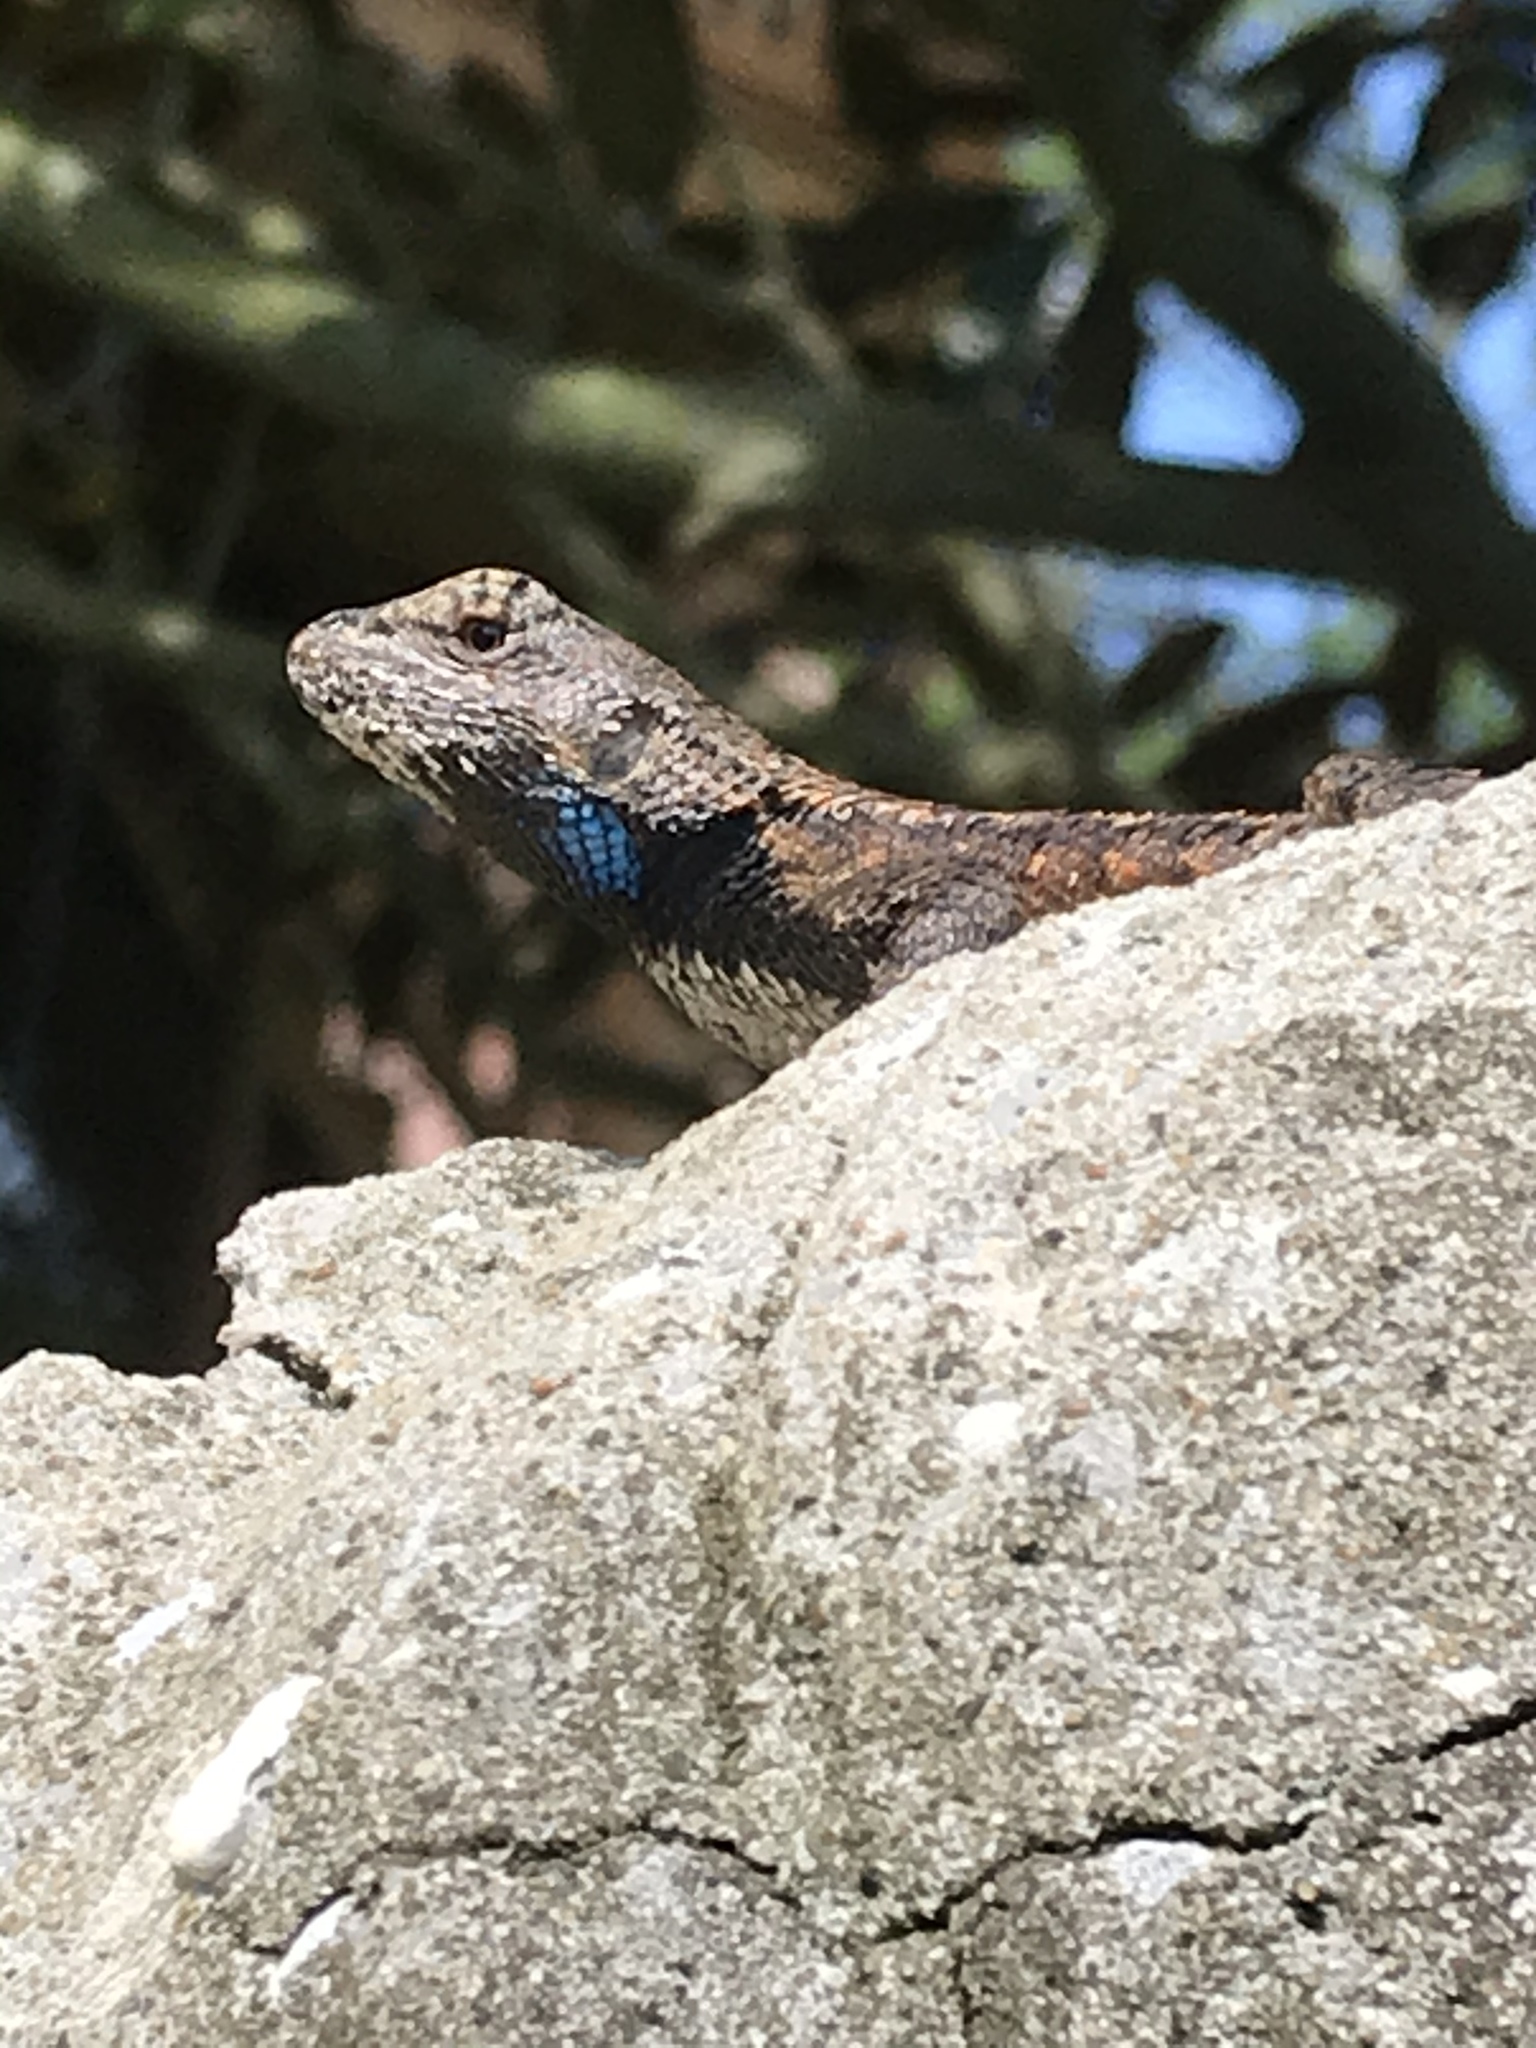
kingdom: Animalia
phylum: Chordata
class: Squamata
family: Phrynosomatidae
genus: Sceloporus
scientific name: Sceloporus undulatus
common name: Eastern fence lizard
